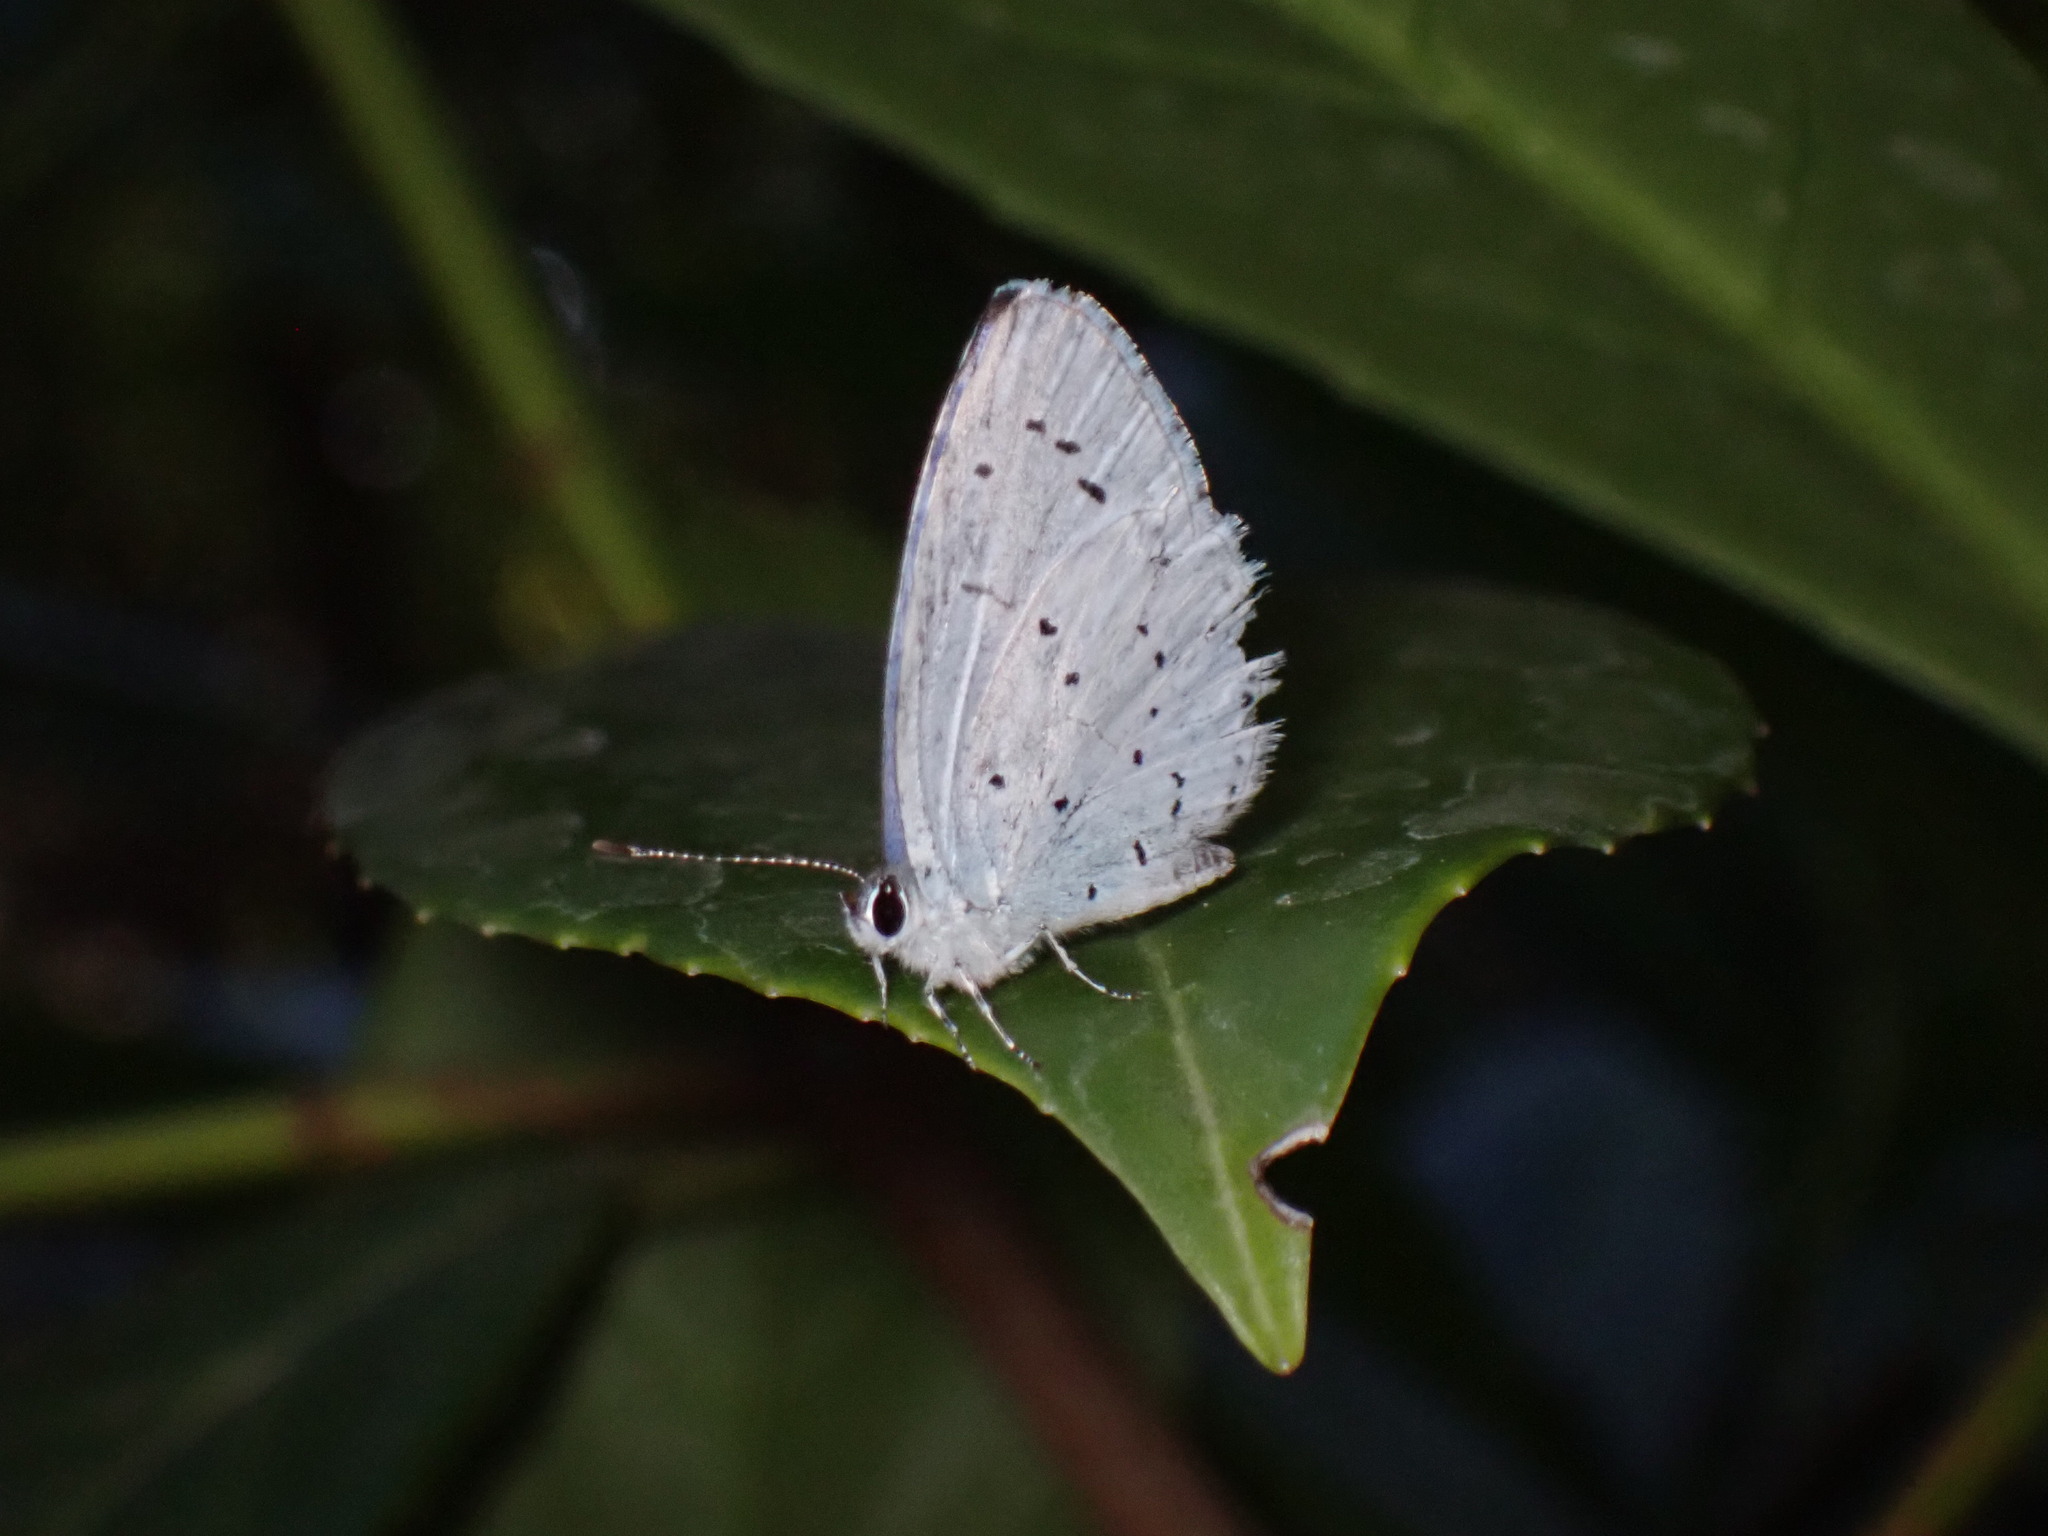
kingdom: Animalia
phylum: Arthropoda
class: Insecta
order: Lepidoptera
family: Lycaenidae
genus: Celastrina
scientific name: Celastrina argiolus
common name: Holly blue
